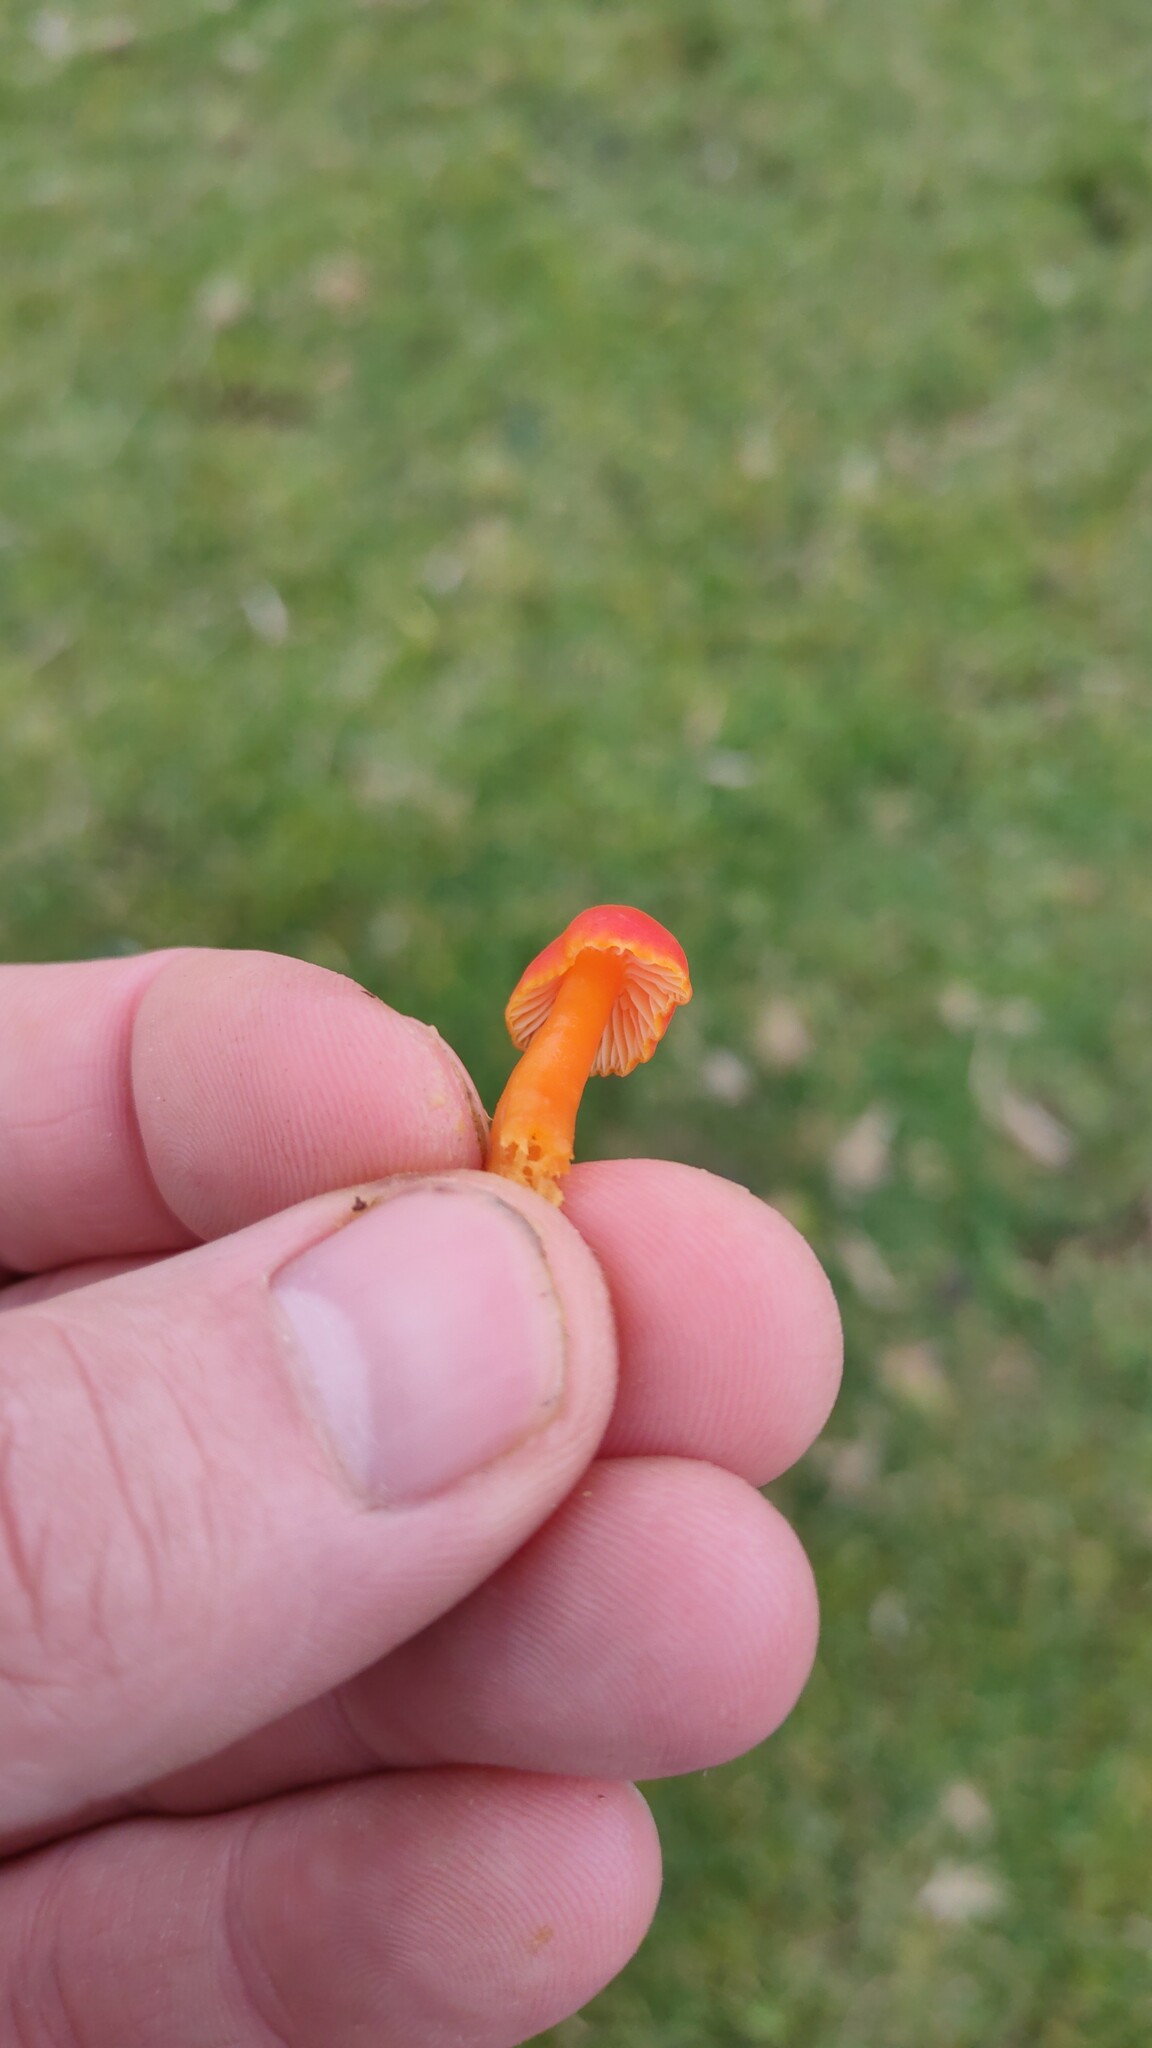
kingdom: Fungi
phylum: Basidiomycota
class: Agaricomycetes
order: Agaricales
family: Hygrophoraceae
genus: Hygrocybe
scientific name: Hygrocybe reidii
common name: Honey waxcap
